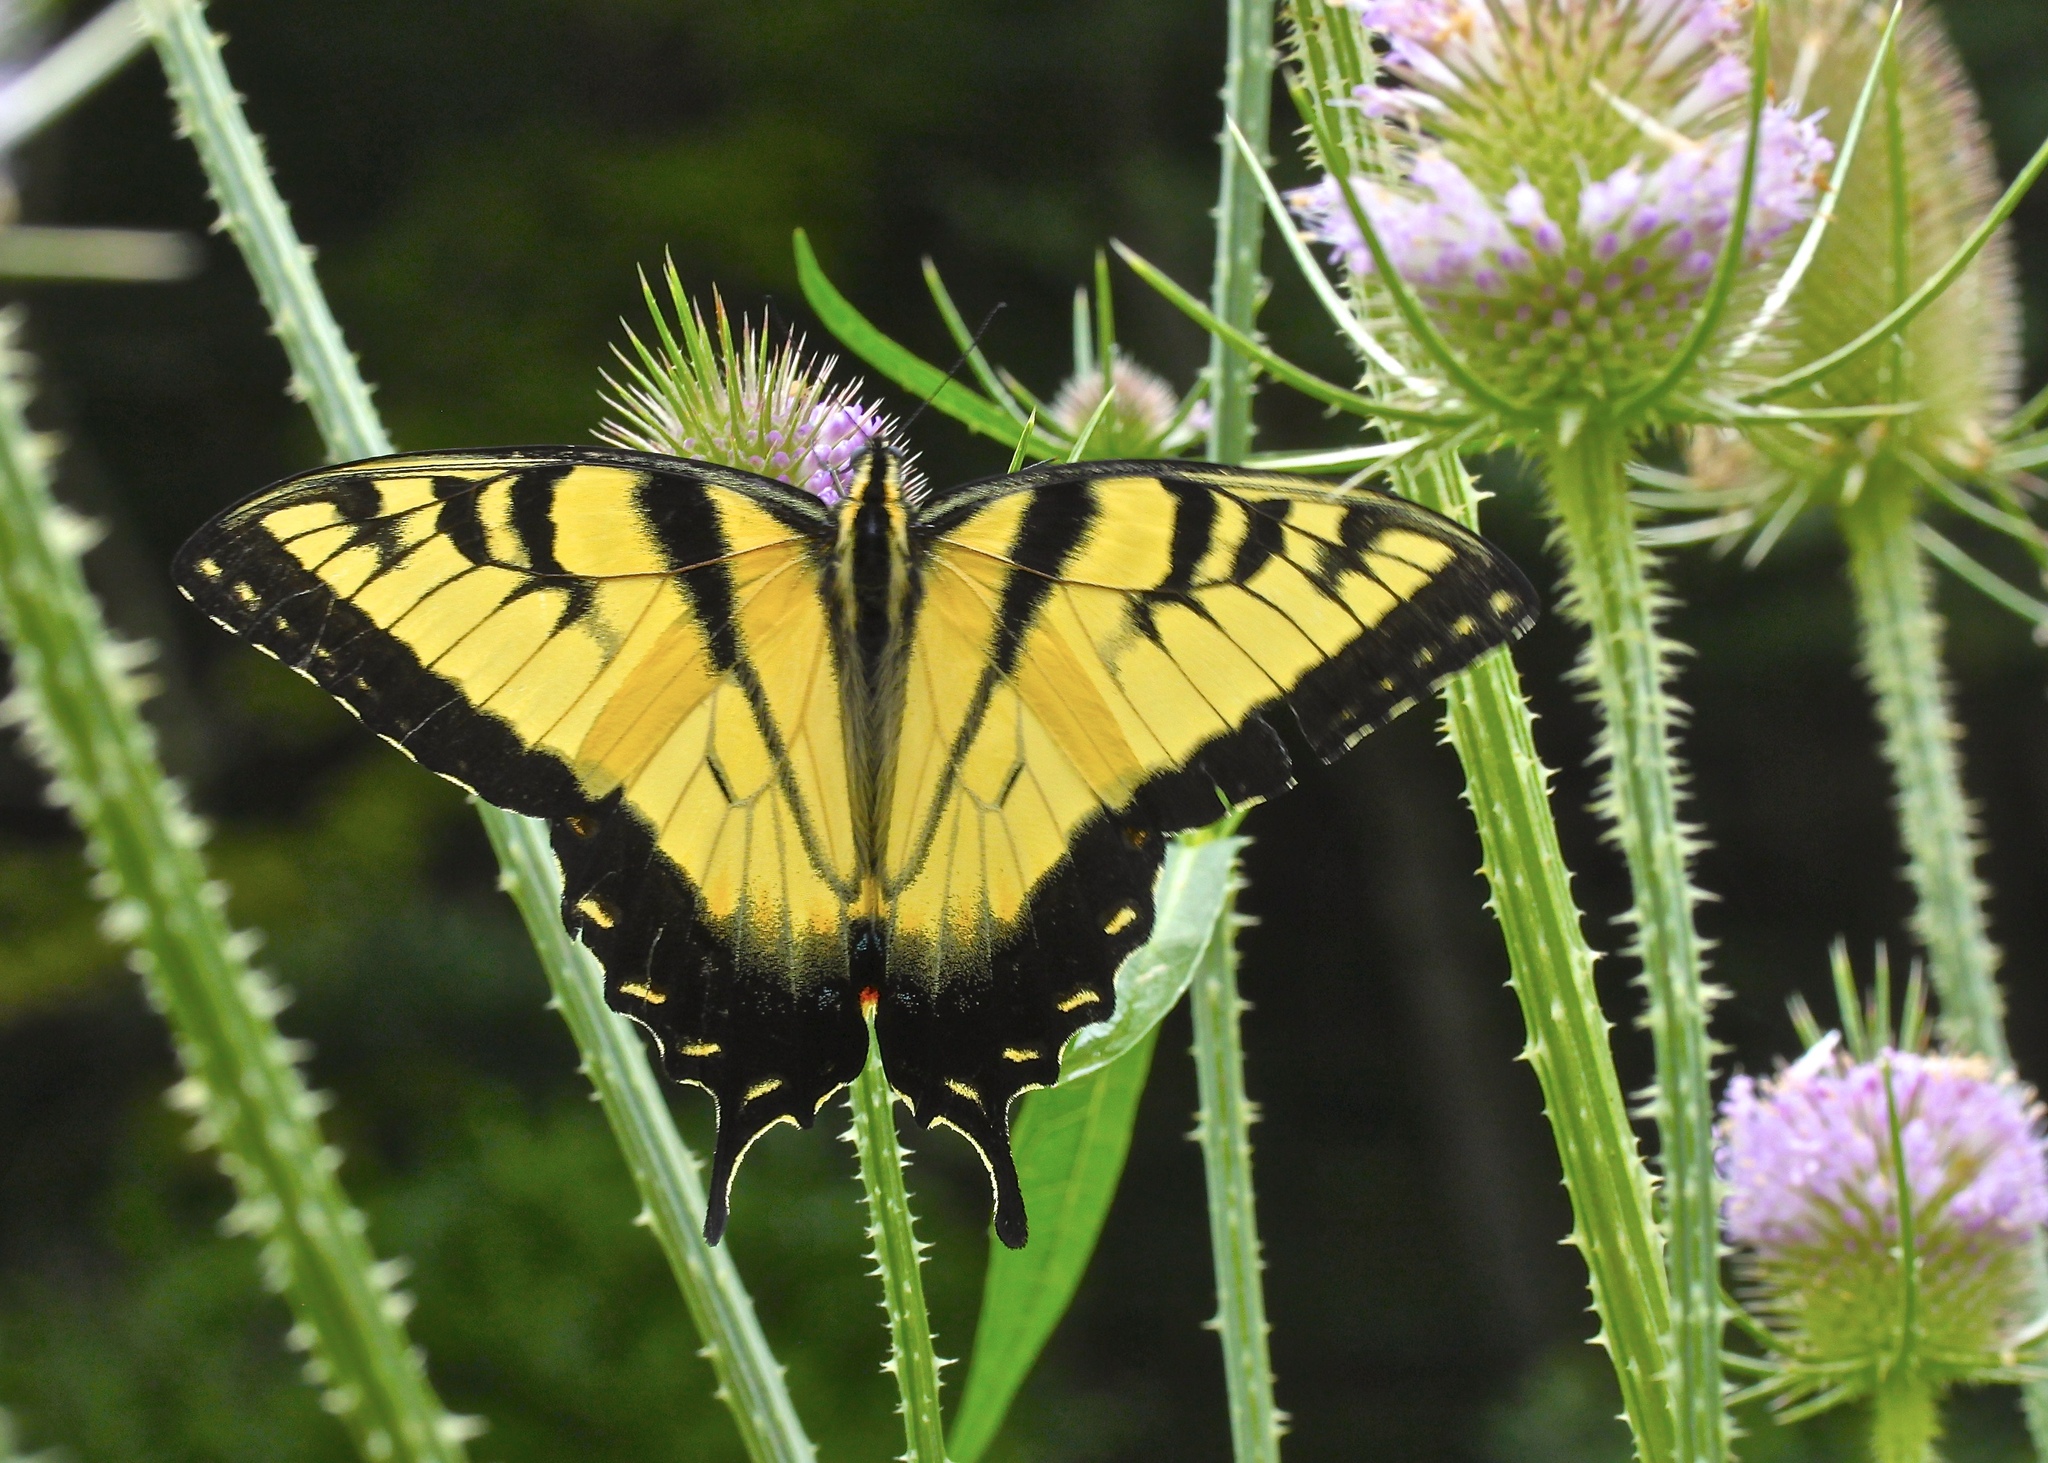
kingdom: Animalia
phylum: Arthropoda
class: Insecta
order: Lepidoptera
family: Papilionidae
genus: Papilio
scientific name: Papilio glaucus
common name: Tiger swallowtail
